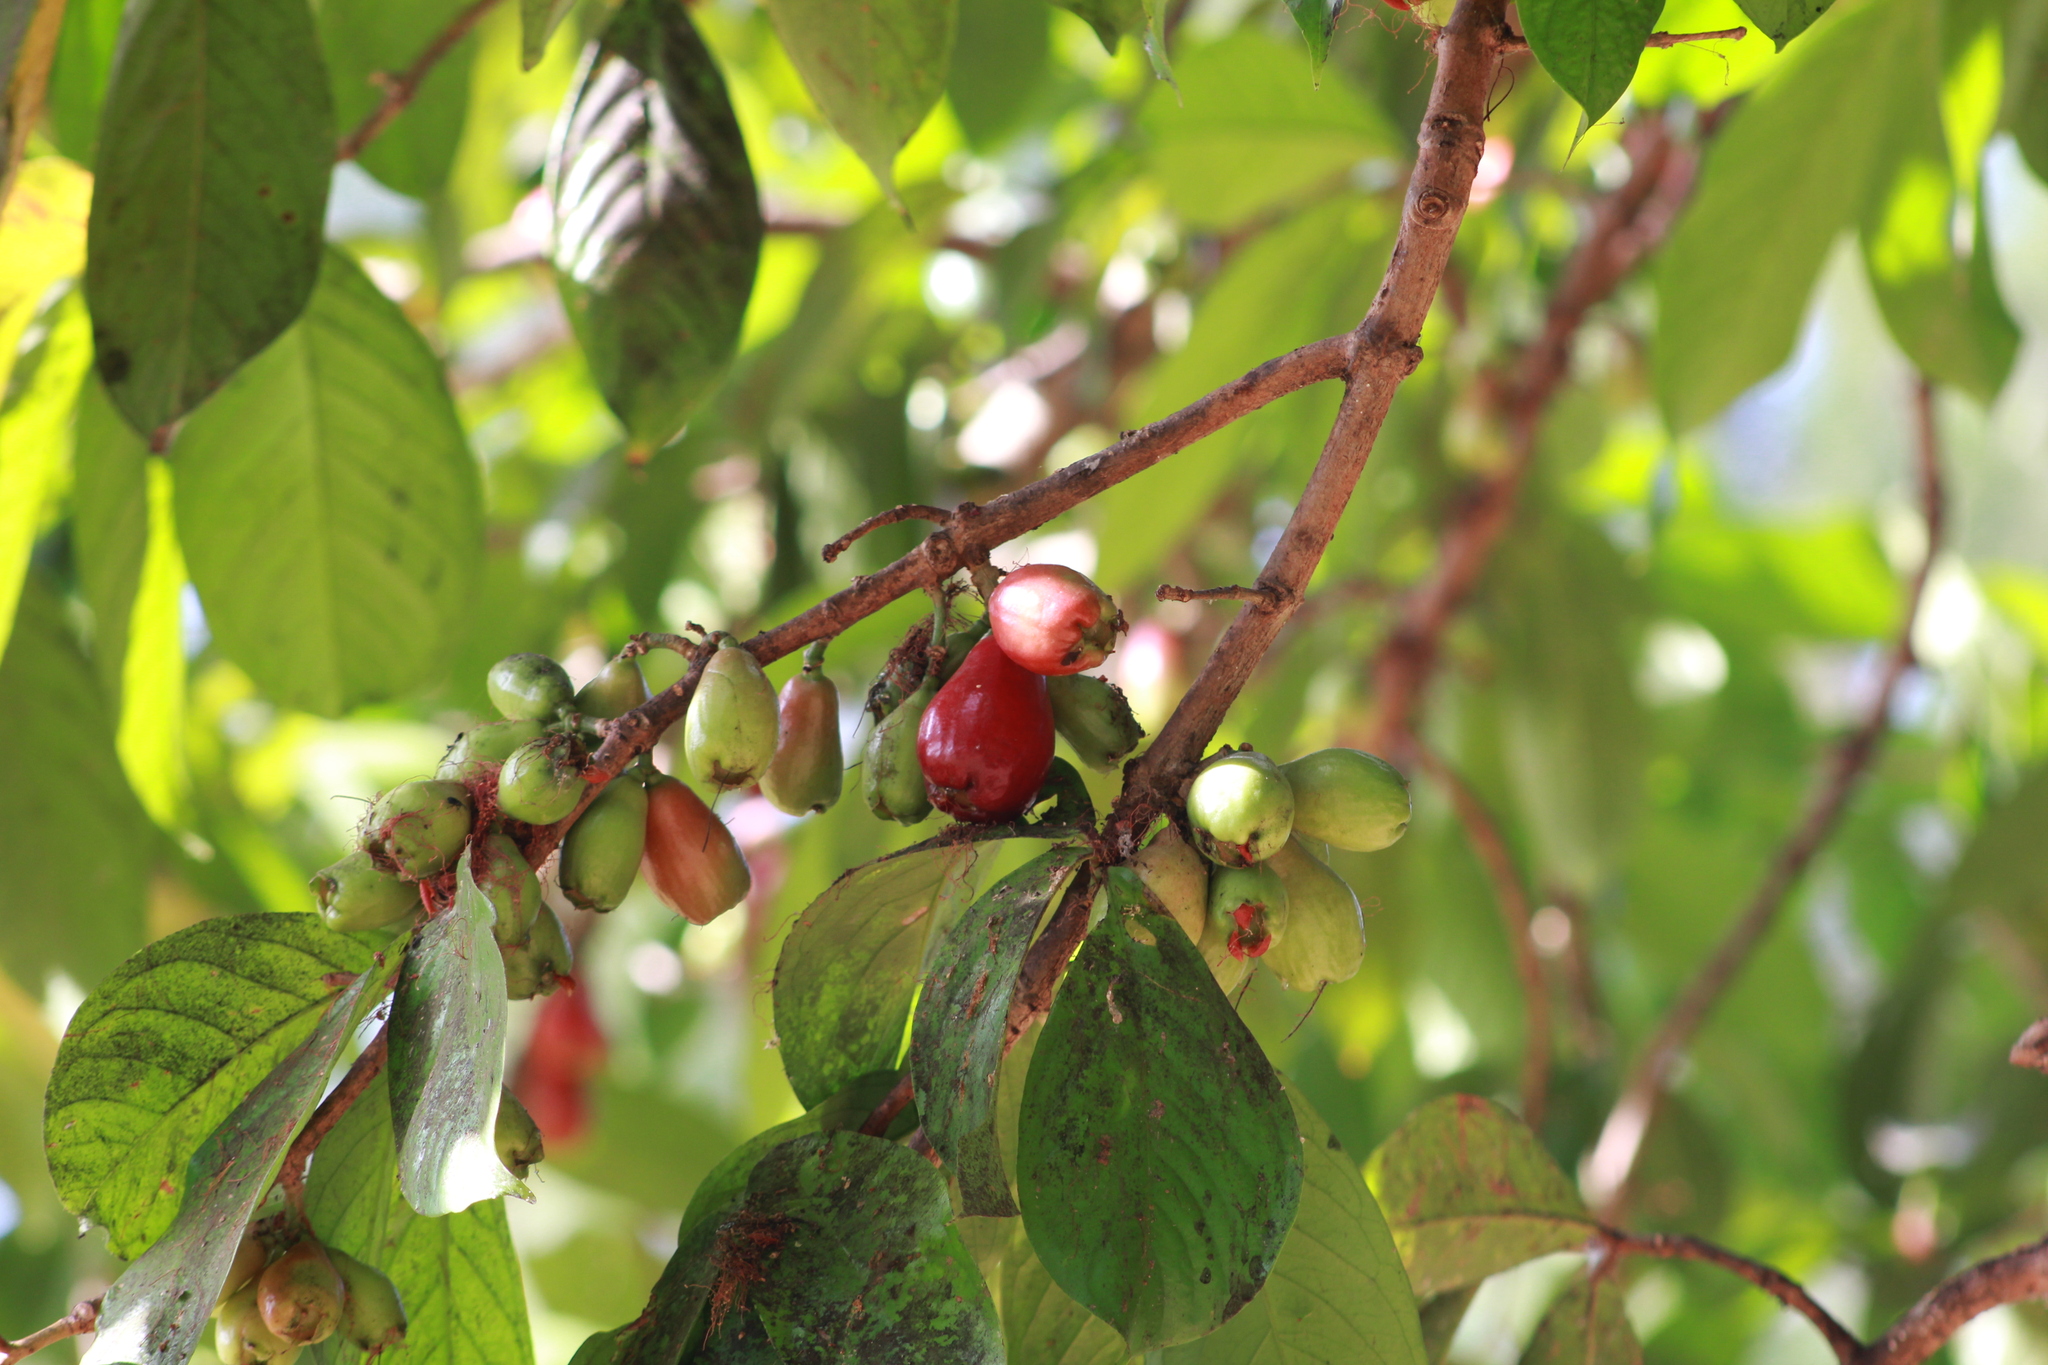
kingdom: Plantae
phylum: Tracheophyta
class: Magnoliopsida
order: Myrtales
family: Myrtaceae
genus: Syzygium
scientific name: Syzygium malaccense
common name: Malaysian apple
